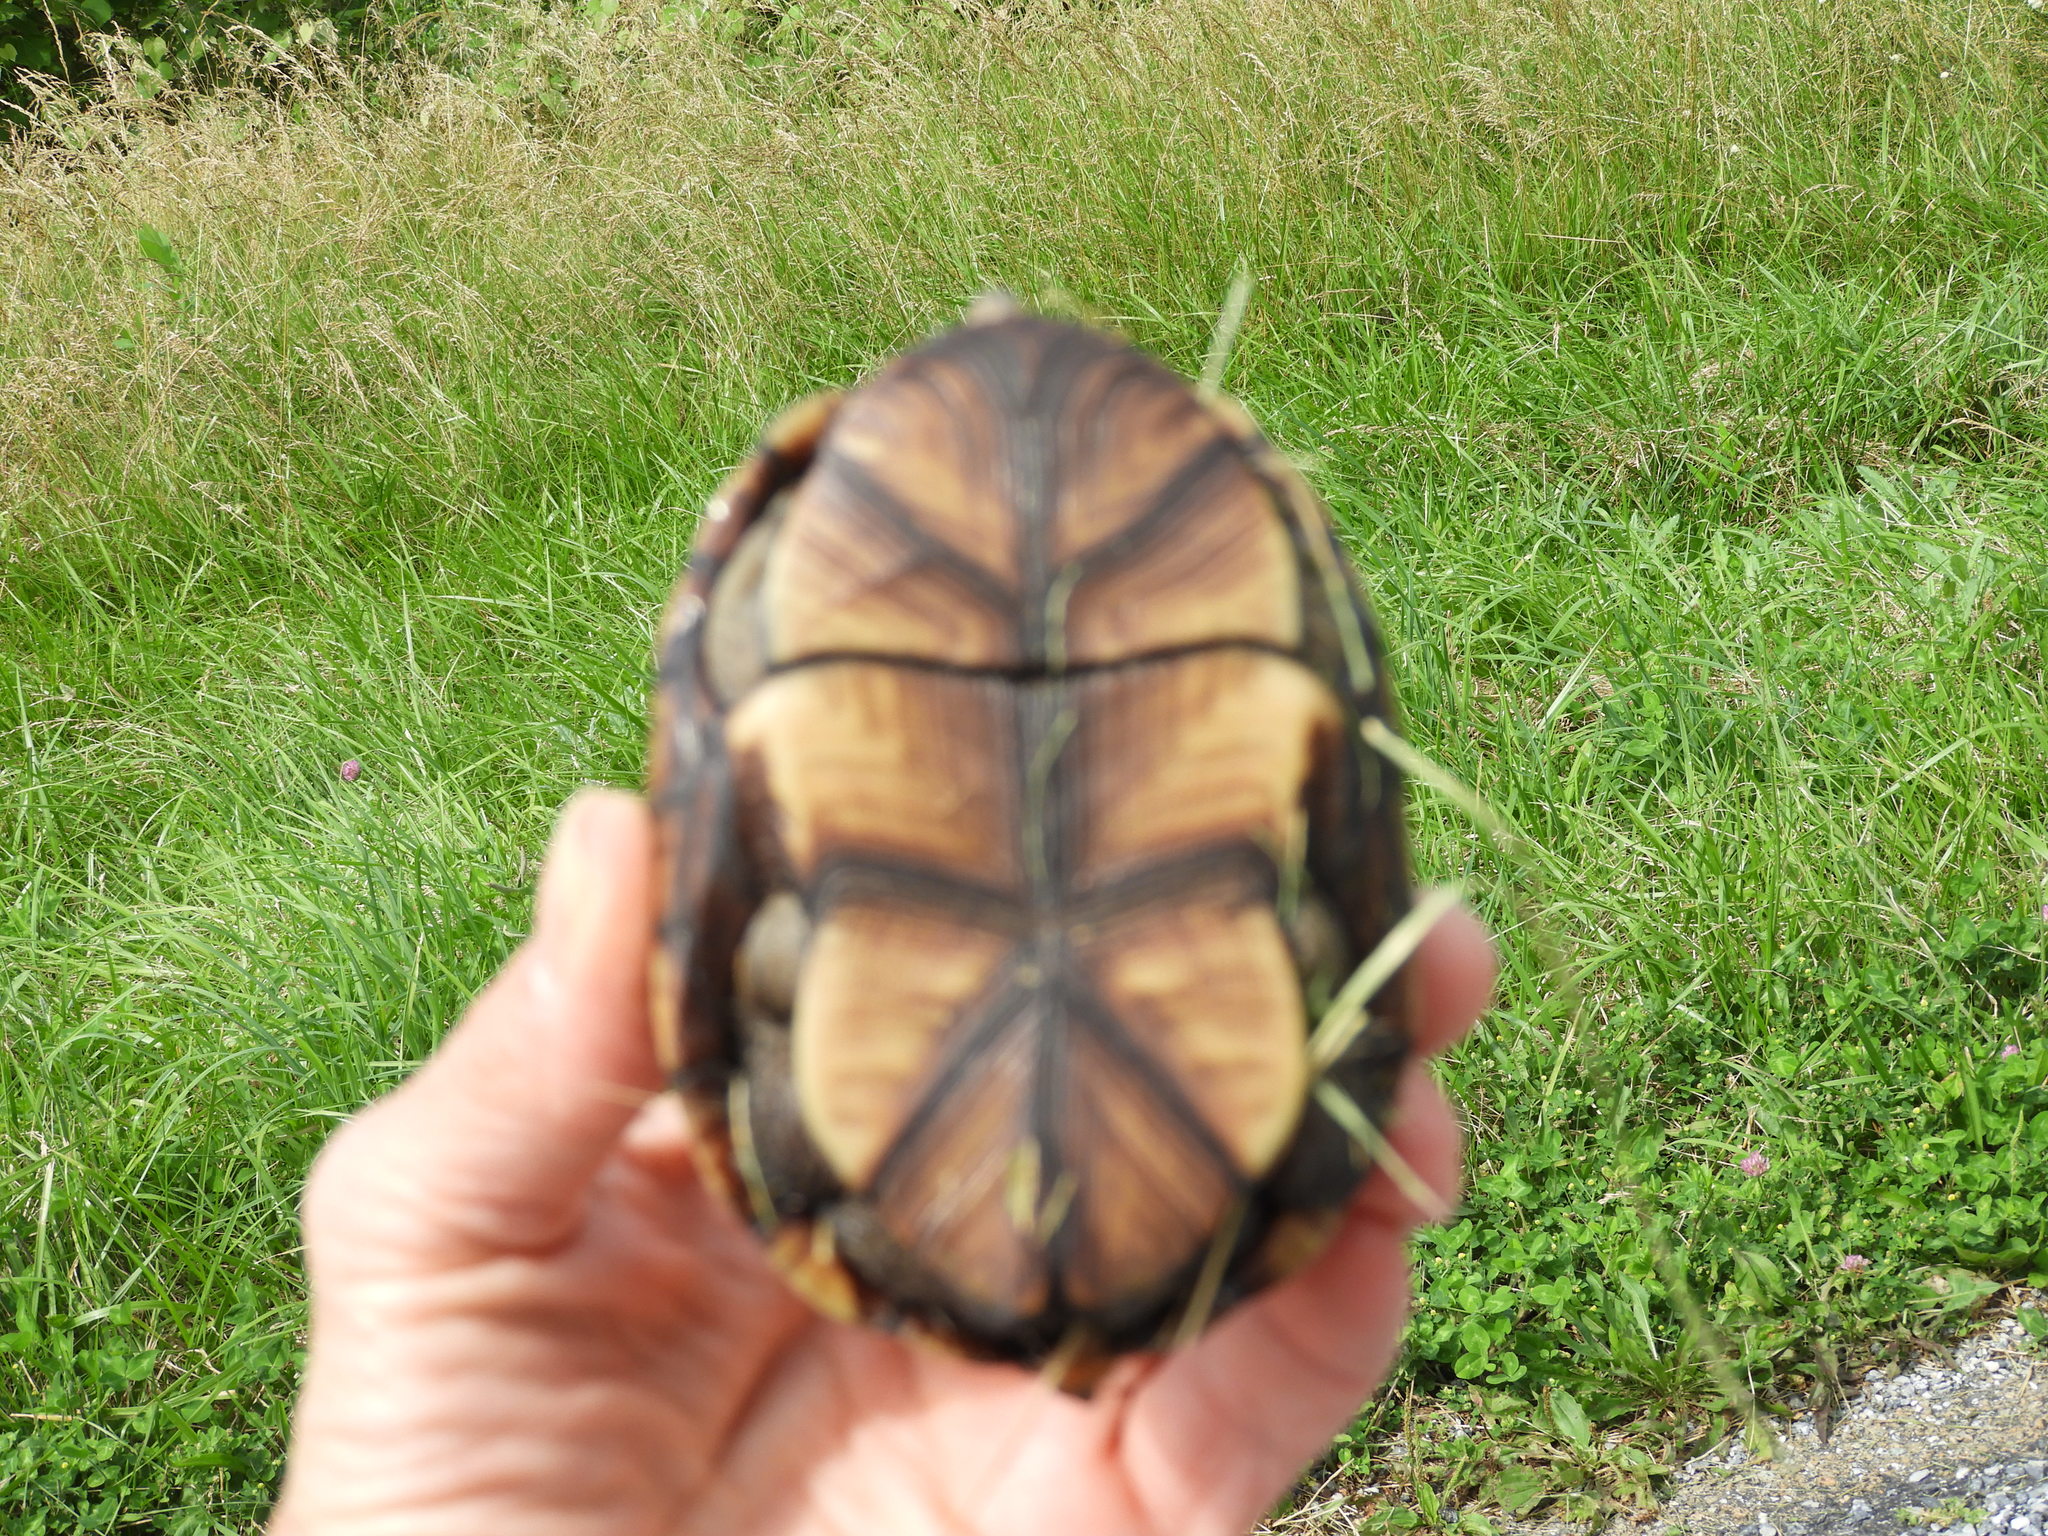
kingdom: Animalia
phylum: Chordata
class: Testudines
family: Kinosternidae
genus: Kinosternon
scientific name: Kinosternon subrubrum
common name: Eastern mud turtle
